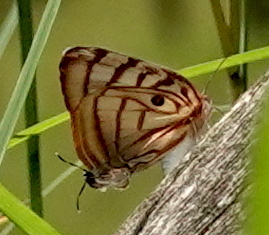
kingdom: Animalia
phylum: Arthropoda
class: Insecta
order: Lepidoptera
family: Lycaenidae
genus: Rekoa
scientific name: Rekoa meton
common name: Meton hairstreak
